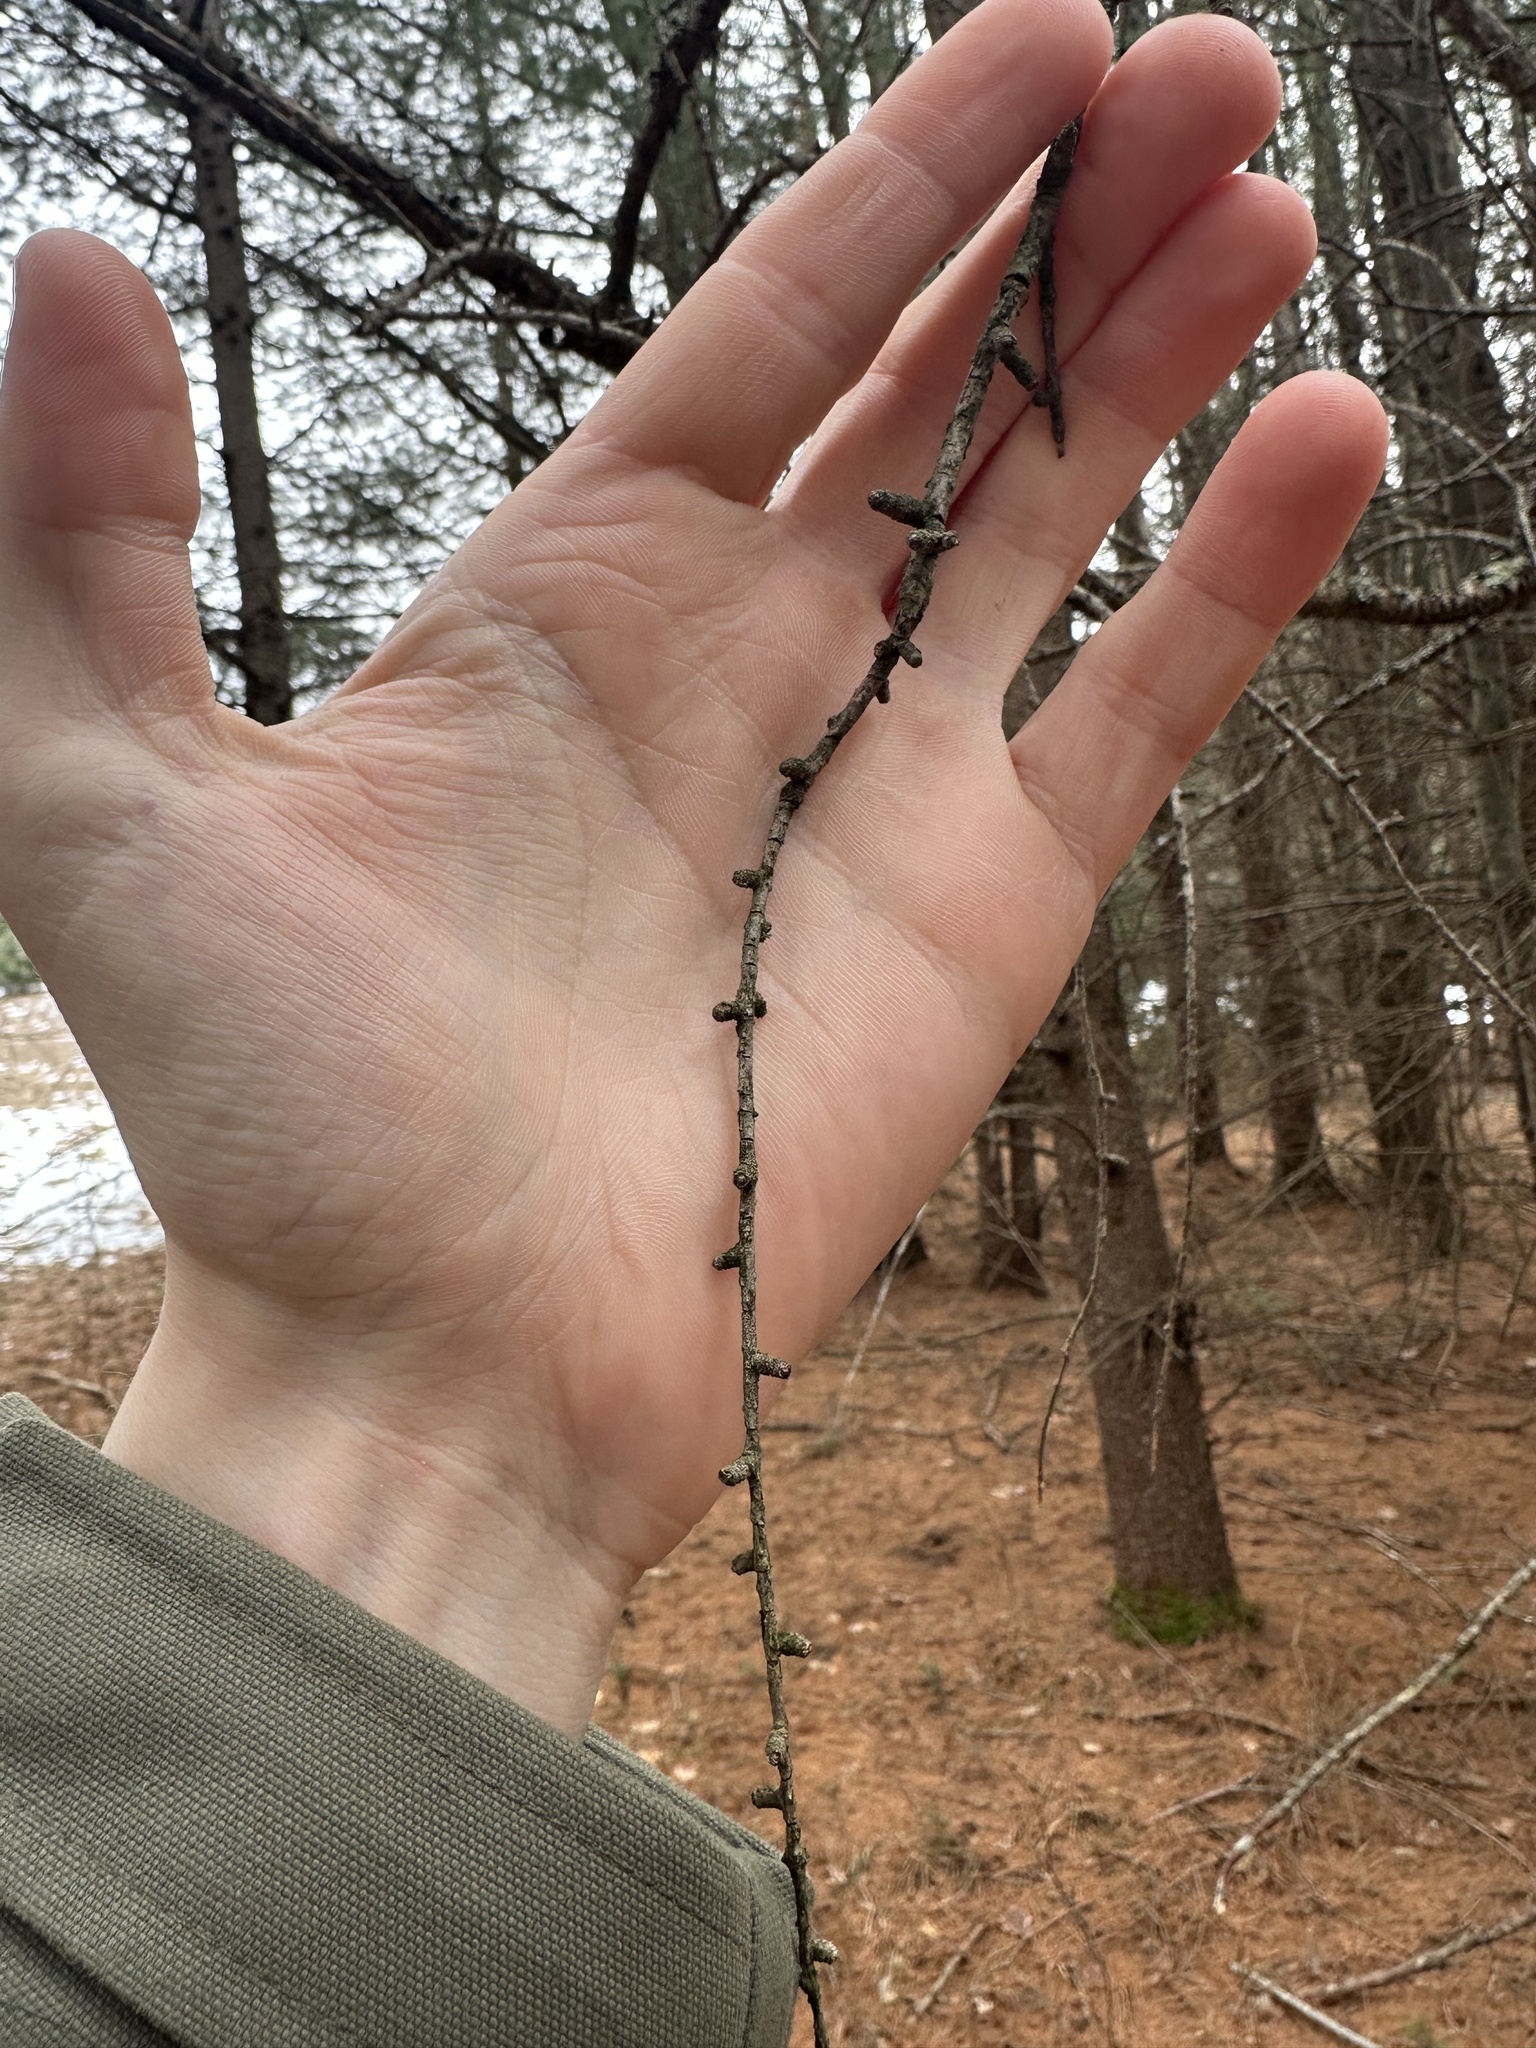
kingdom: Plantae
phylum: Tracheophyta
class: Pinopsida
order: Pinales
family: Pinaceae
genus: Larix
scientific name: Larix laricina
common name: American larch
